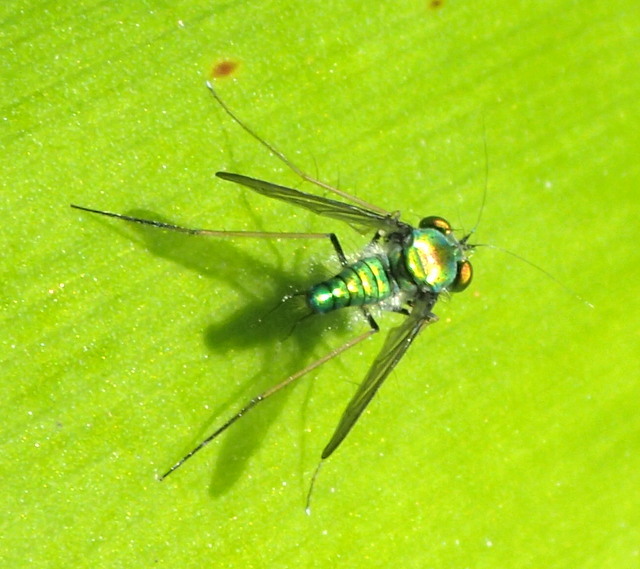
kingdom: Animalia
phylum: Arthropoda
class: Insecta
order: Diptera
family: Dolichopodidae
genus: Condylostylus
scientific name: Condylostylus comatus
